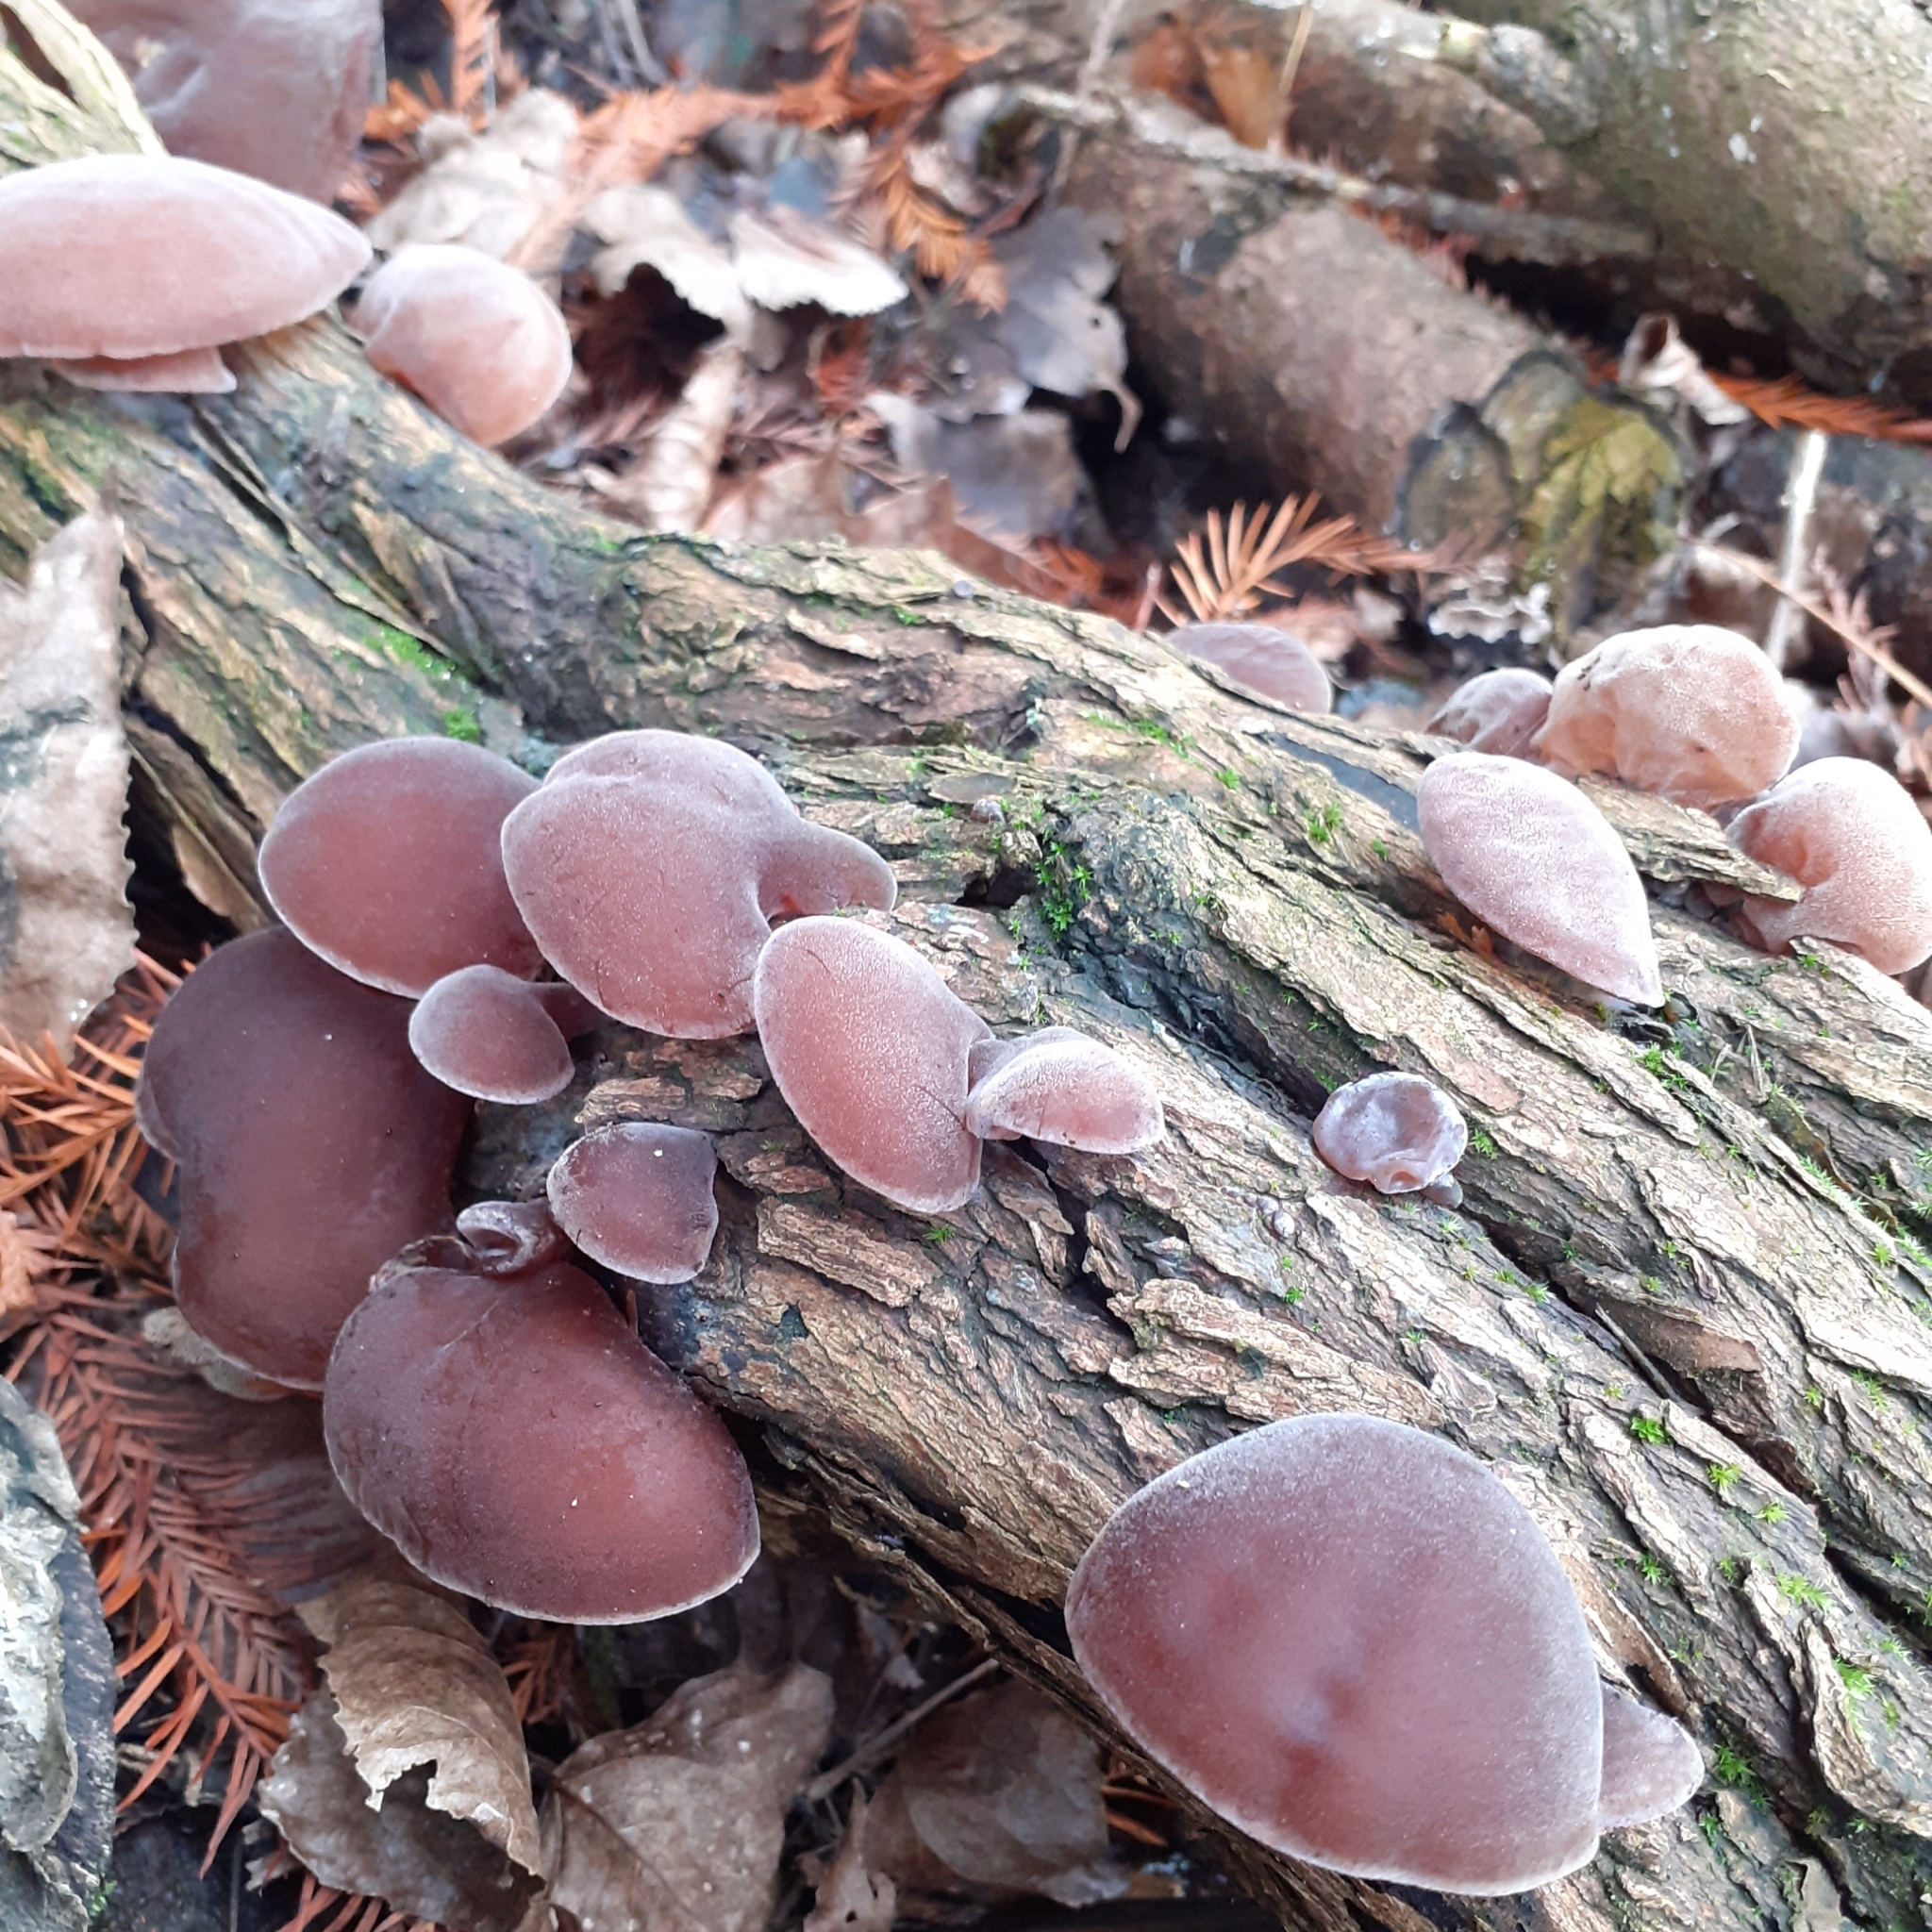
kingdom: Fungi
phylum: Basidiomycota
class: Agaricomycetes
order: Auriculariales
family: Auriculariaceae
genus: Auricularia
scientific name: Auricularia auricula-judae
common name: Jelly ear
